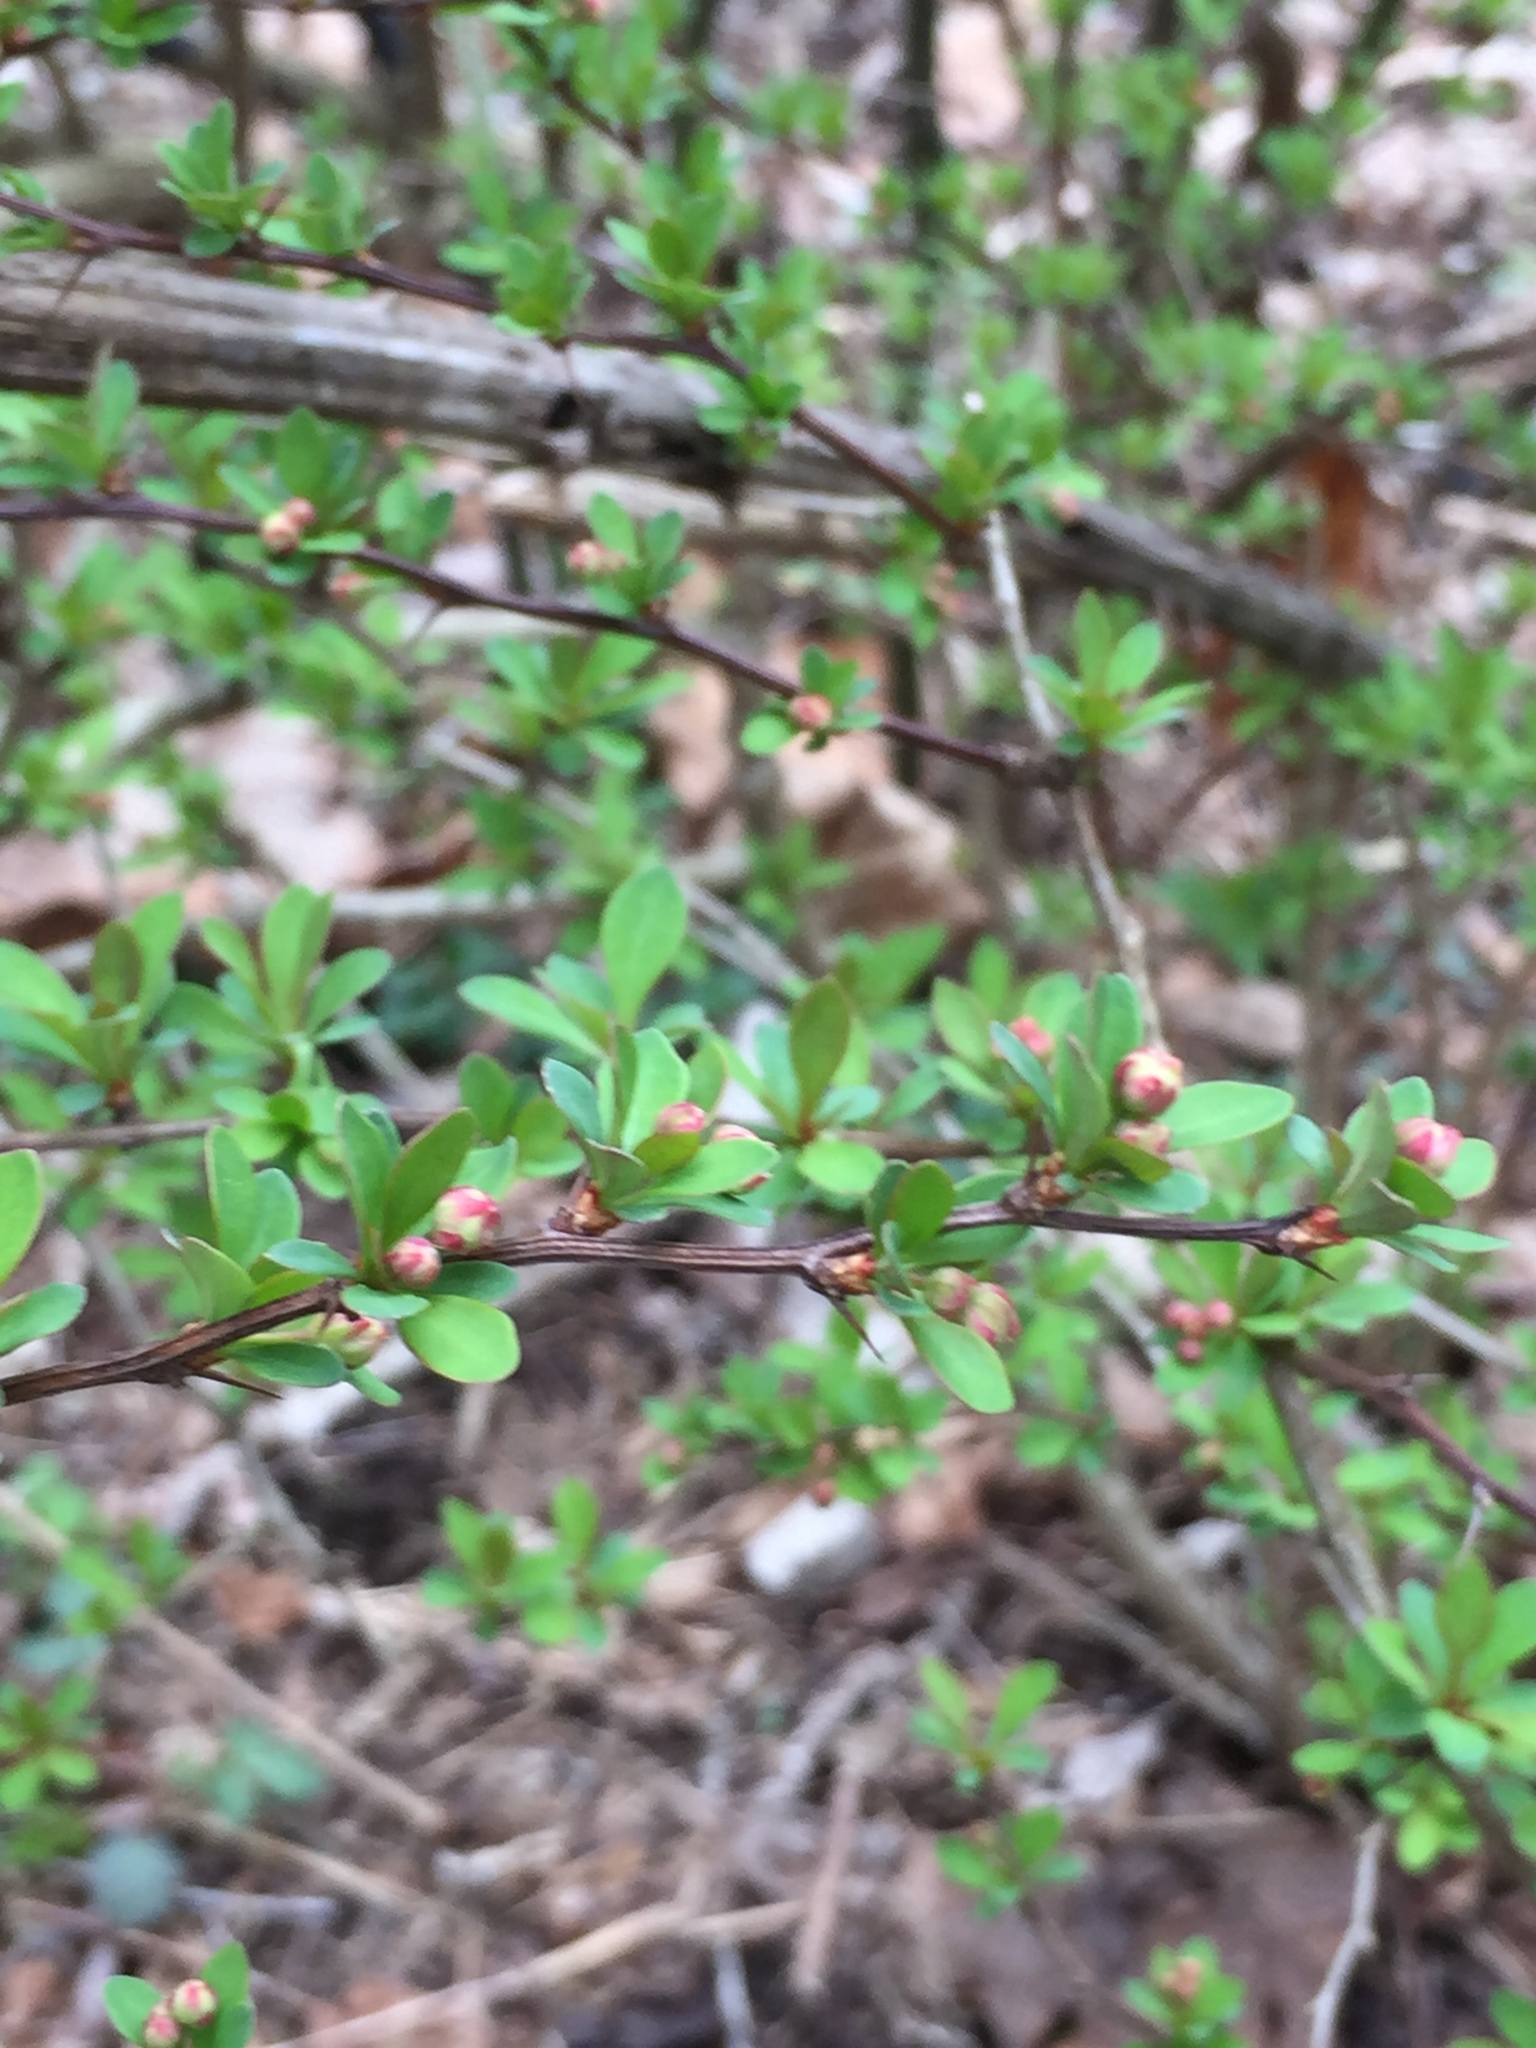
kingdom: Plantae
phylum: Tracheophyta
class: Magnoliopsida
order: Ranunculales
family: Berberidaceae
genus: Berberis
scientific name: Berberis thunbergii
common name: Japanese barberry
